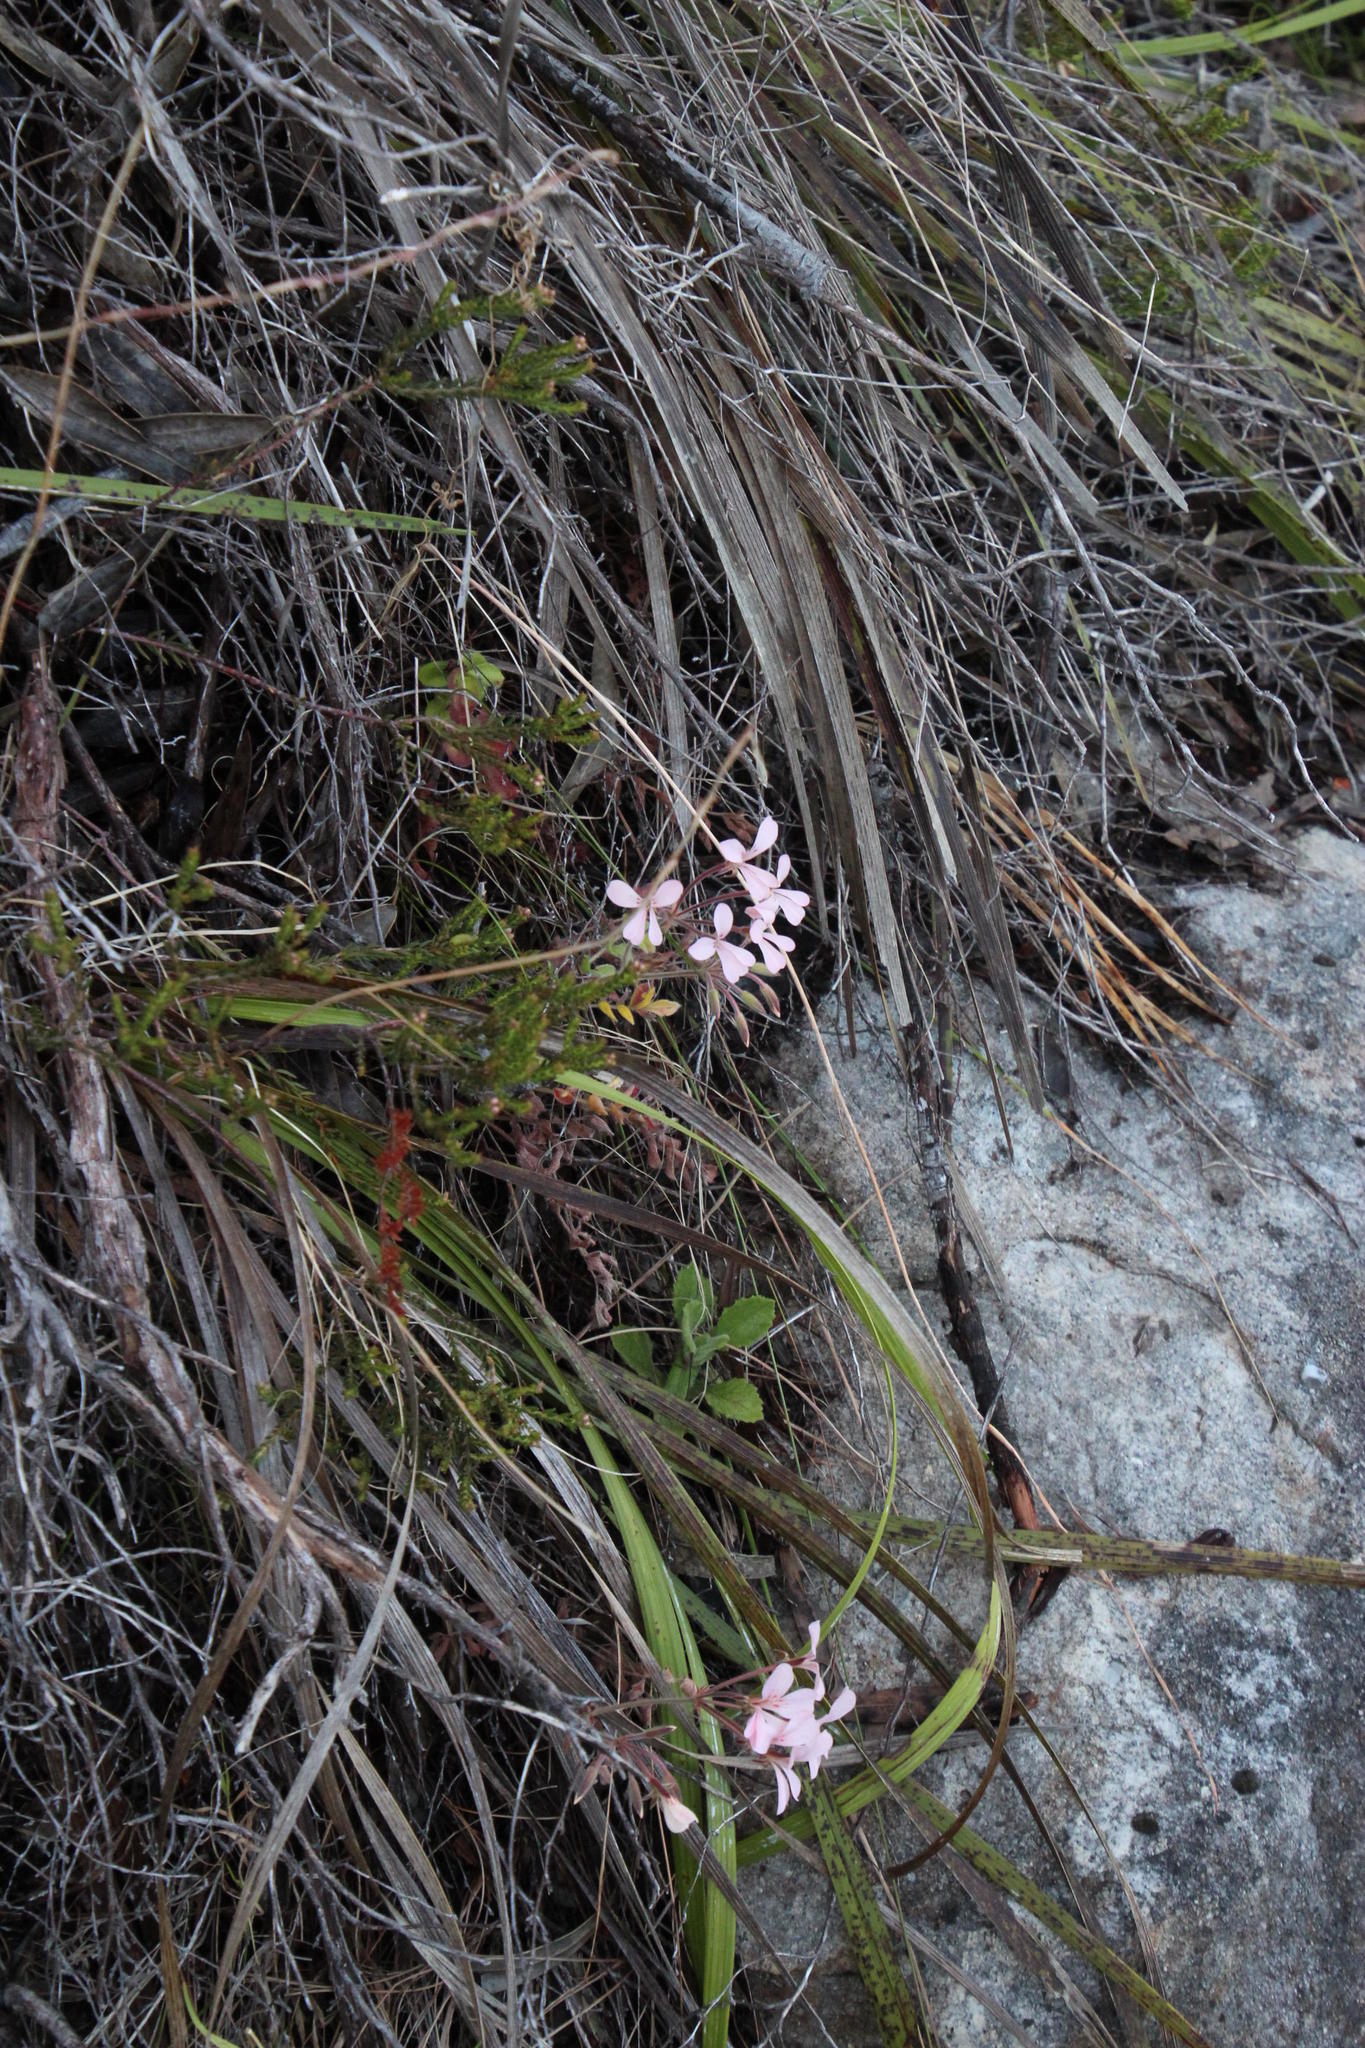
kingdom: Plantae
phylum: Tracheophyta
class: Magnoliopsida
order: Geraniales
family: Geraniaceae
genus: Pelargonium
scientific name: Pelargonium pinnatum
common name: Pinnated pelargonium
